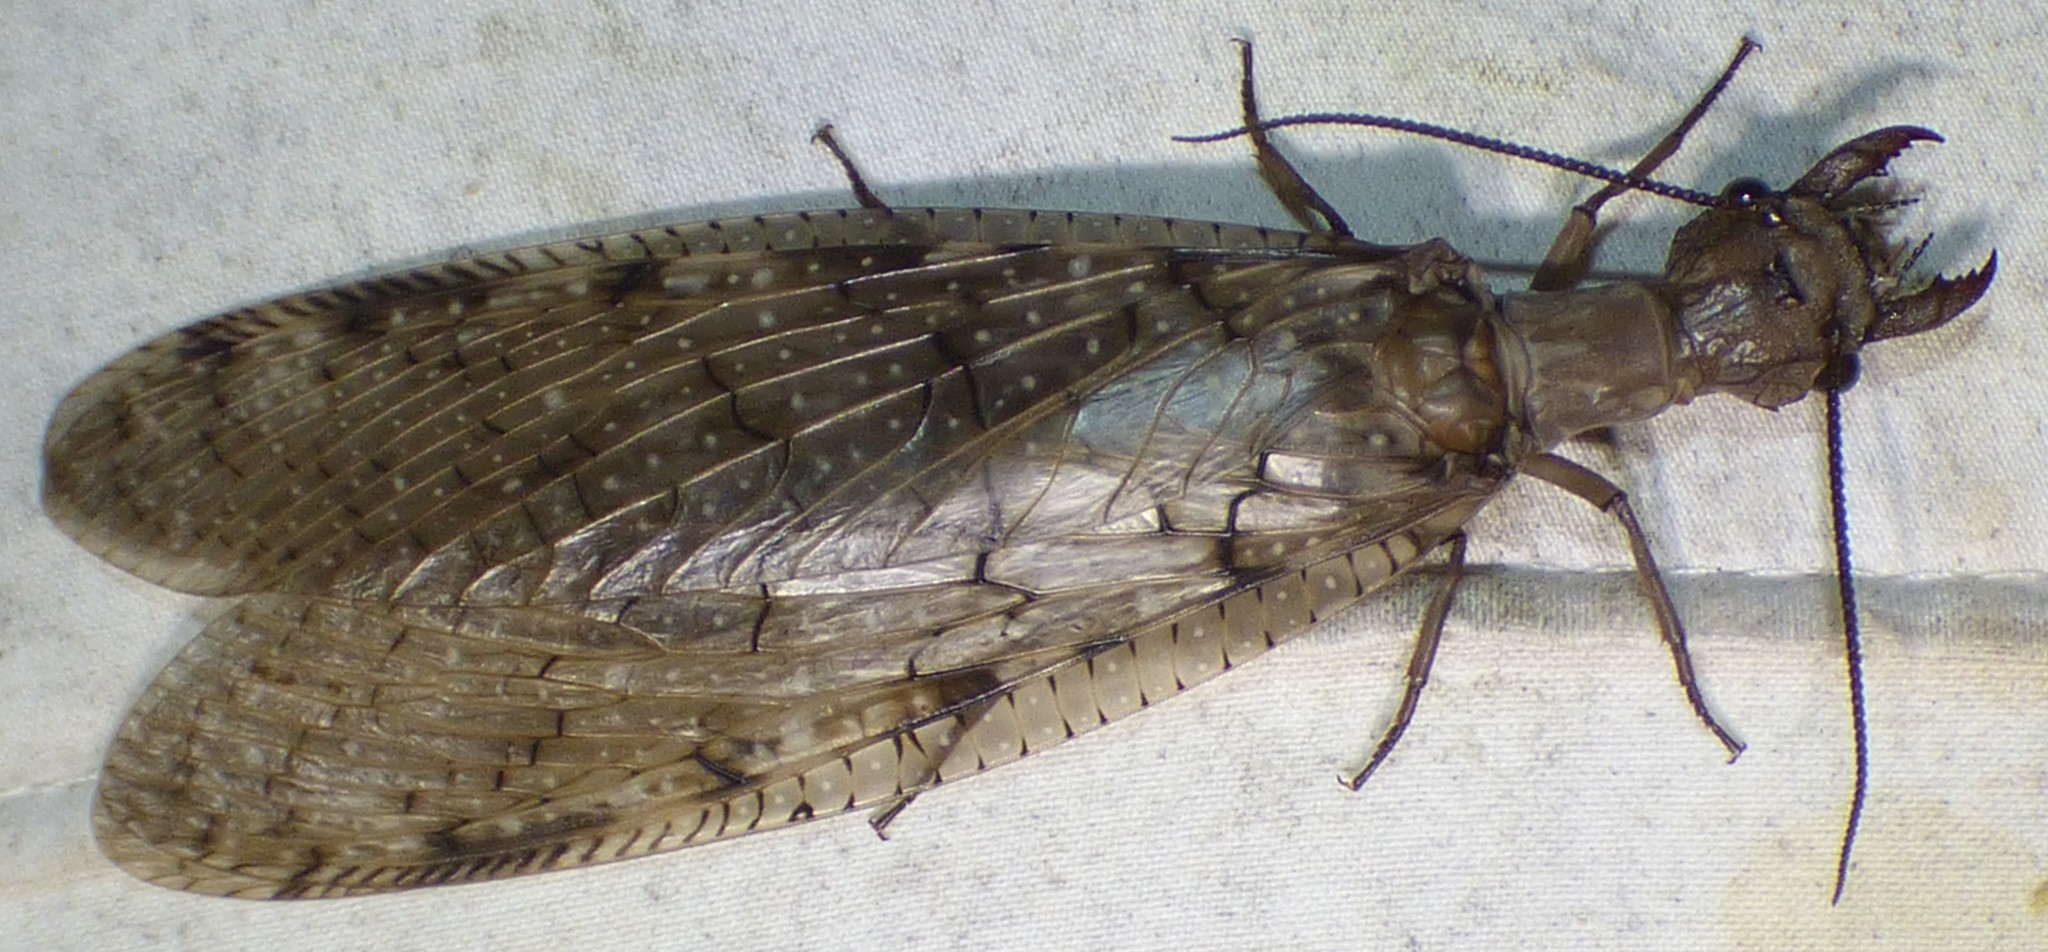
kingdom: Animalia
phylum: Arthropoda
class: Insecta
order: Megaloptera
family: Corydalidae
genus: Corydalus
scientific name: Corydalus cornutus
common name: Dobsonfly
